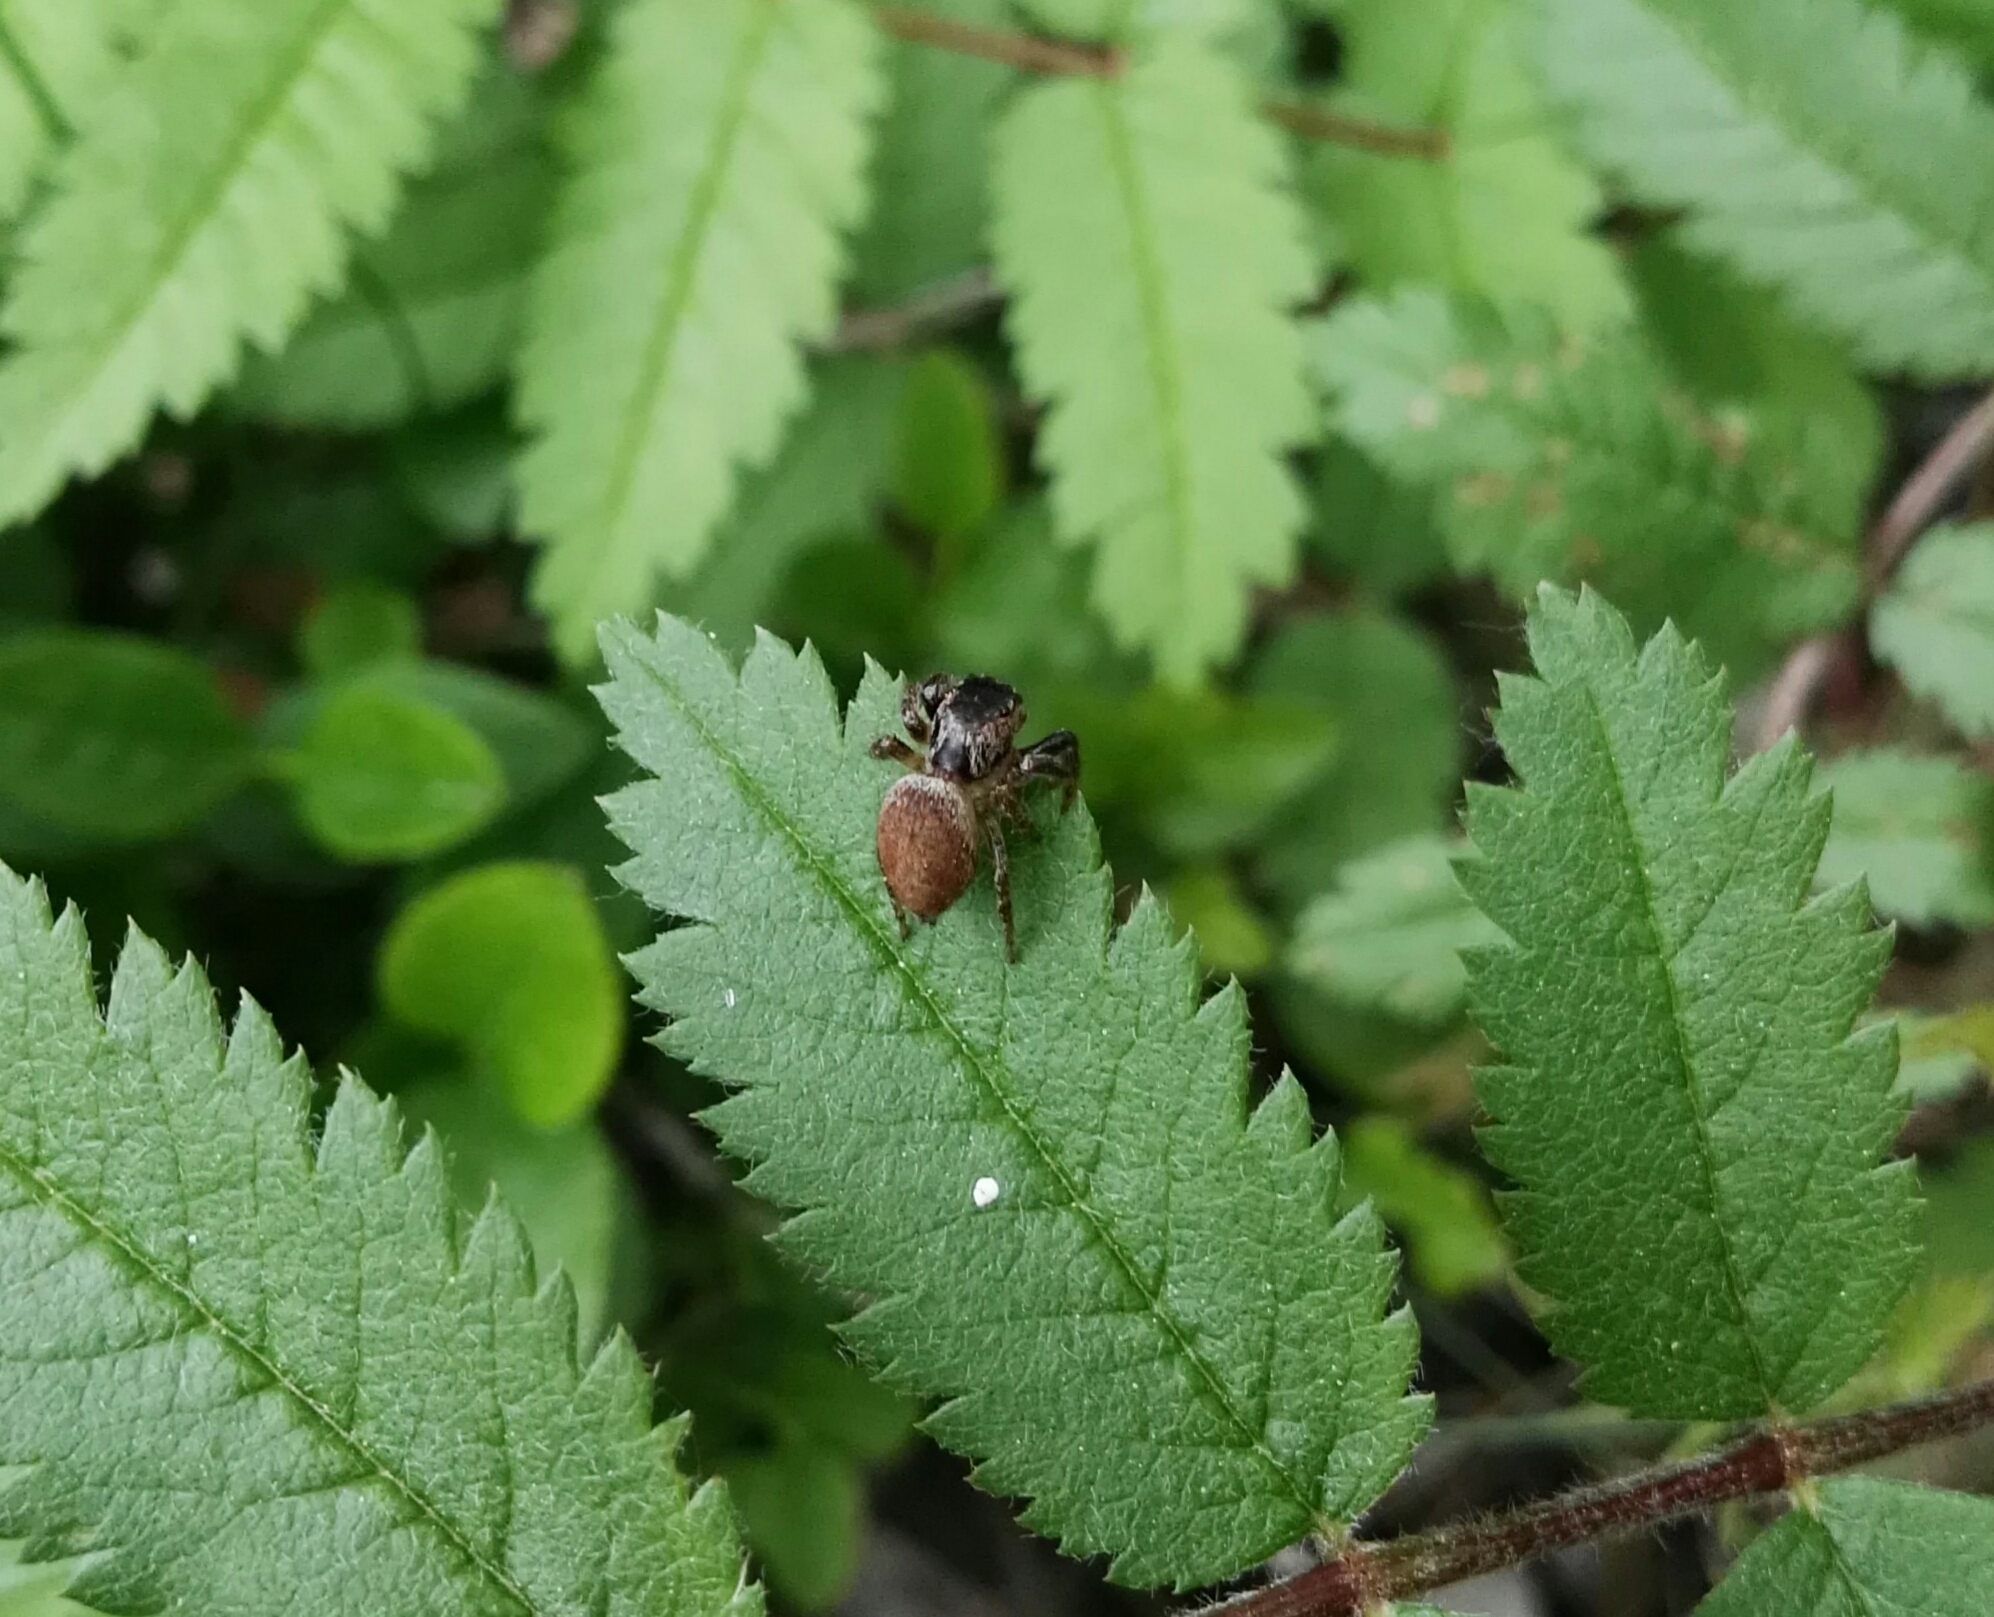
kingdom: Animalia
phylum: Arthropoda
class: Arachnida
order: Araneae
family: Salticidae
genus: Evarcha
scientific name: Evarcha
